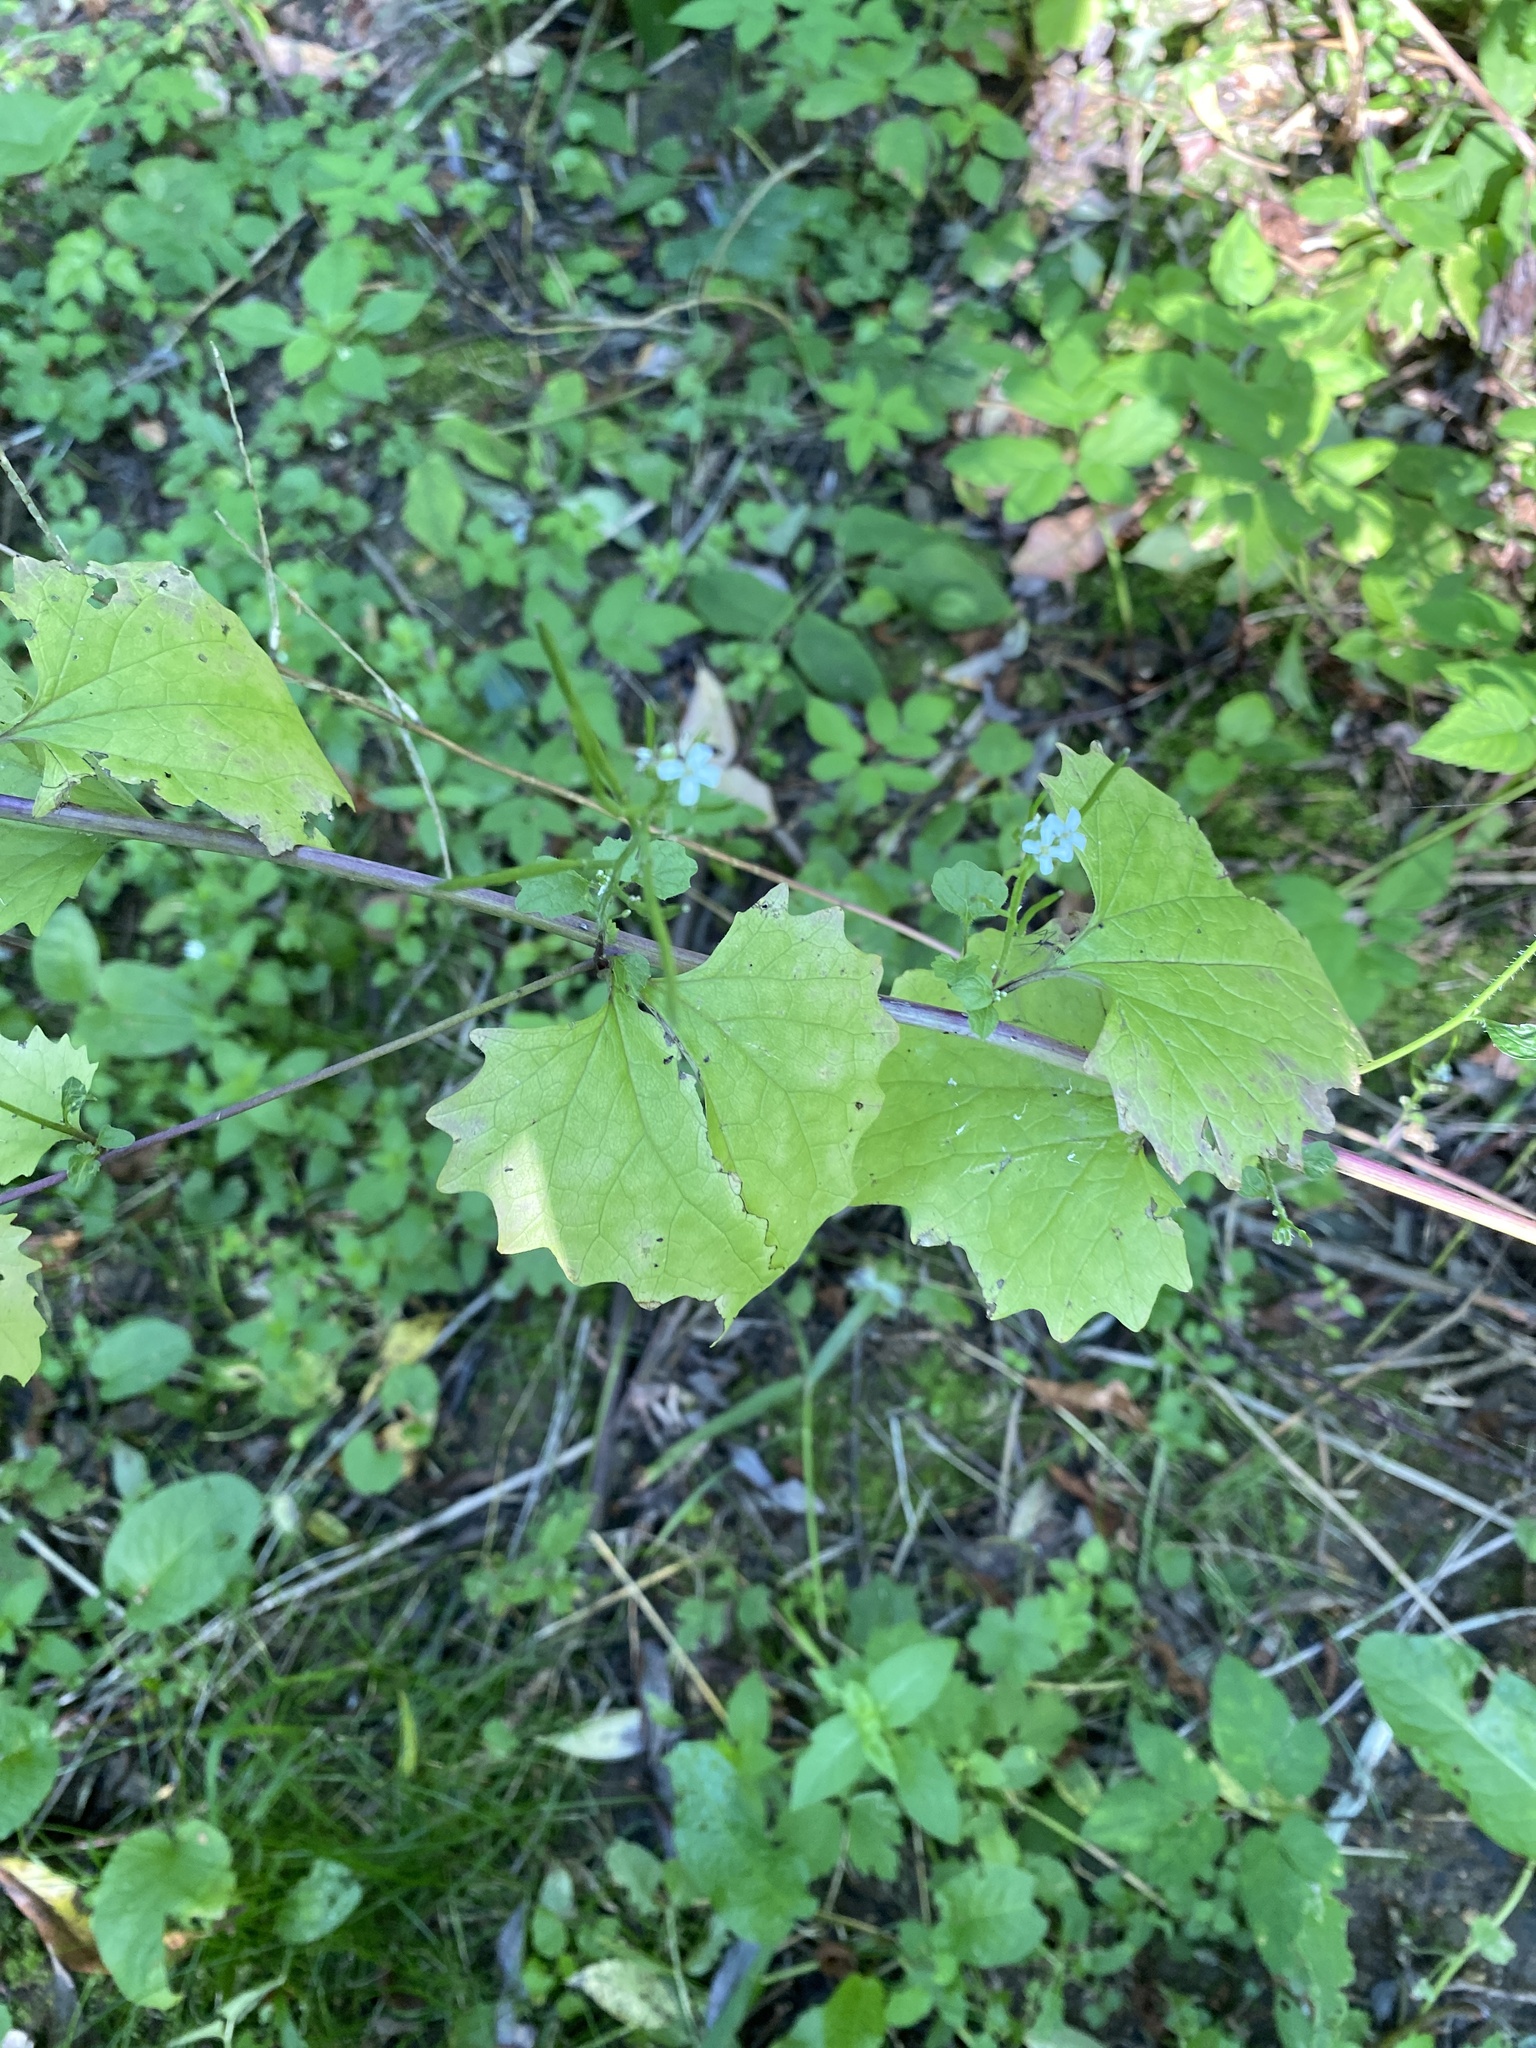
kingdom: Plantae
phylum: Tracheophyta
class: Magnoliopsida
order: Brassicales
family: Brassicaceae
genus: Alliaria
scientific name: Alliaria petiolata
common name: Garlic mustard
